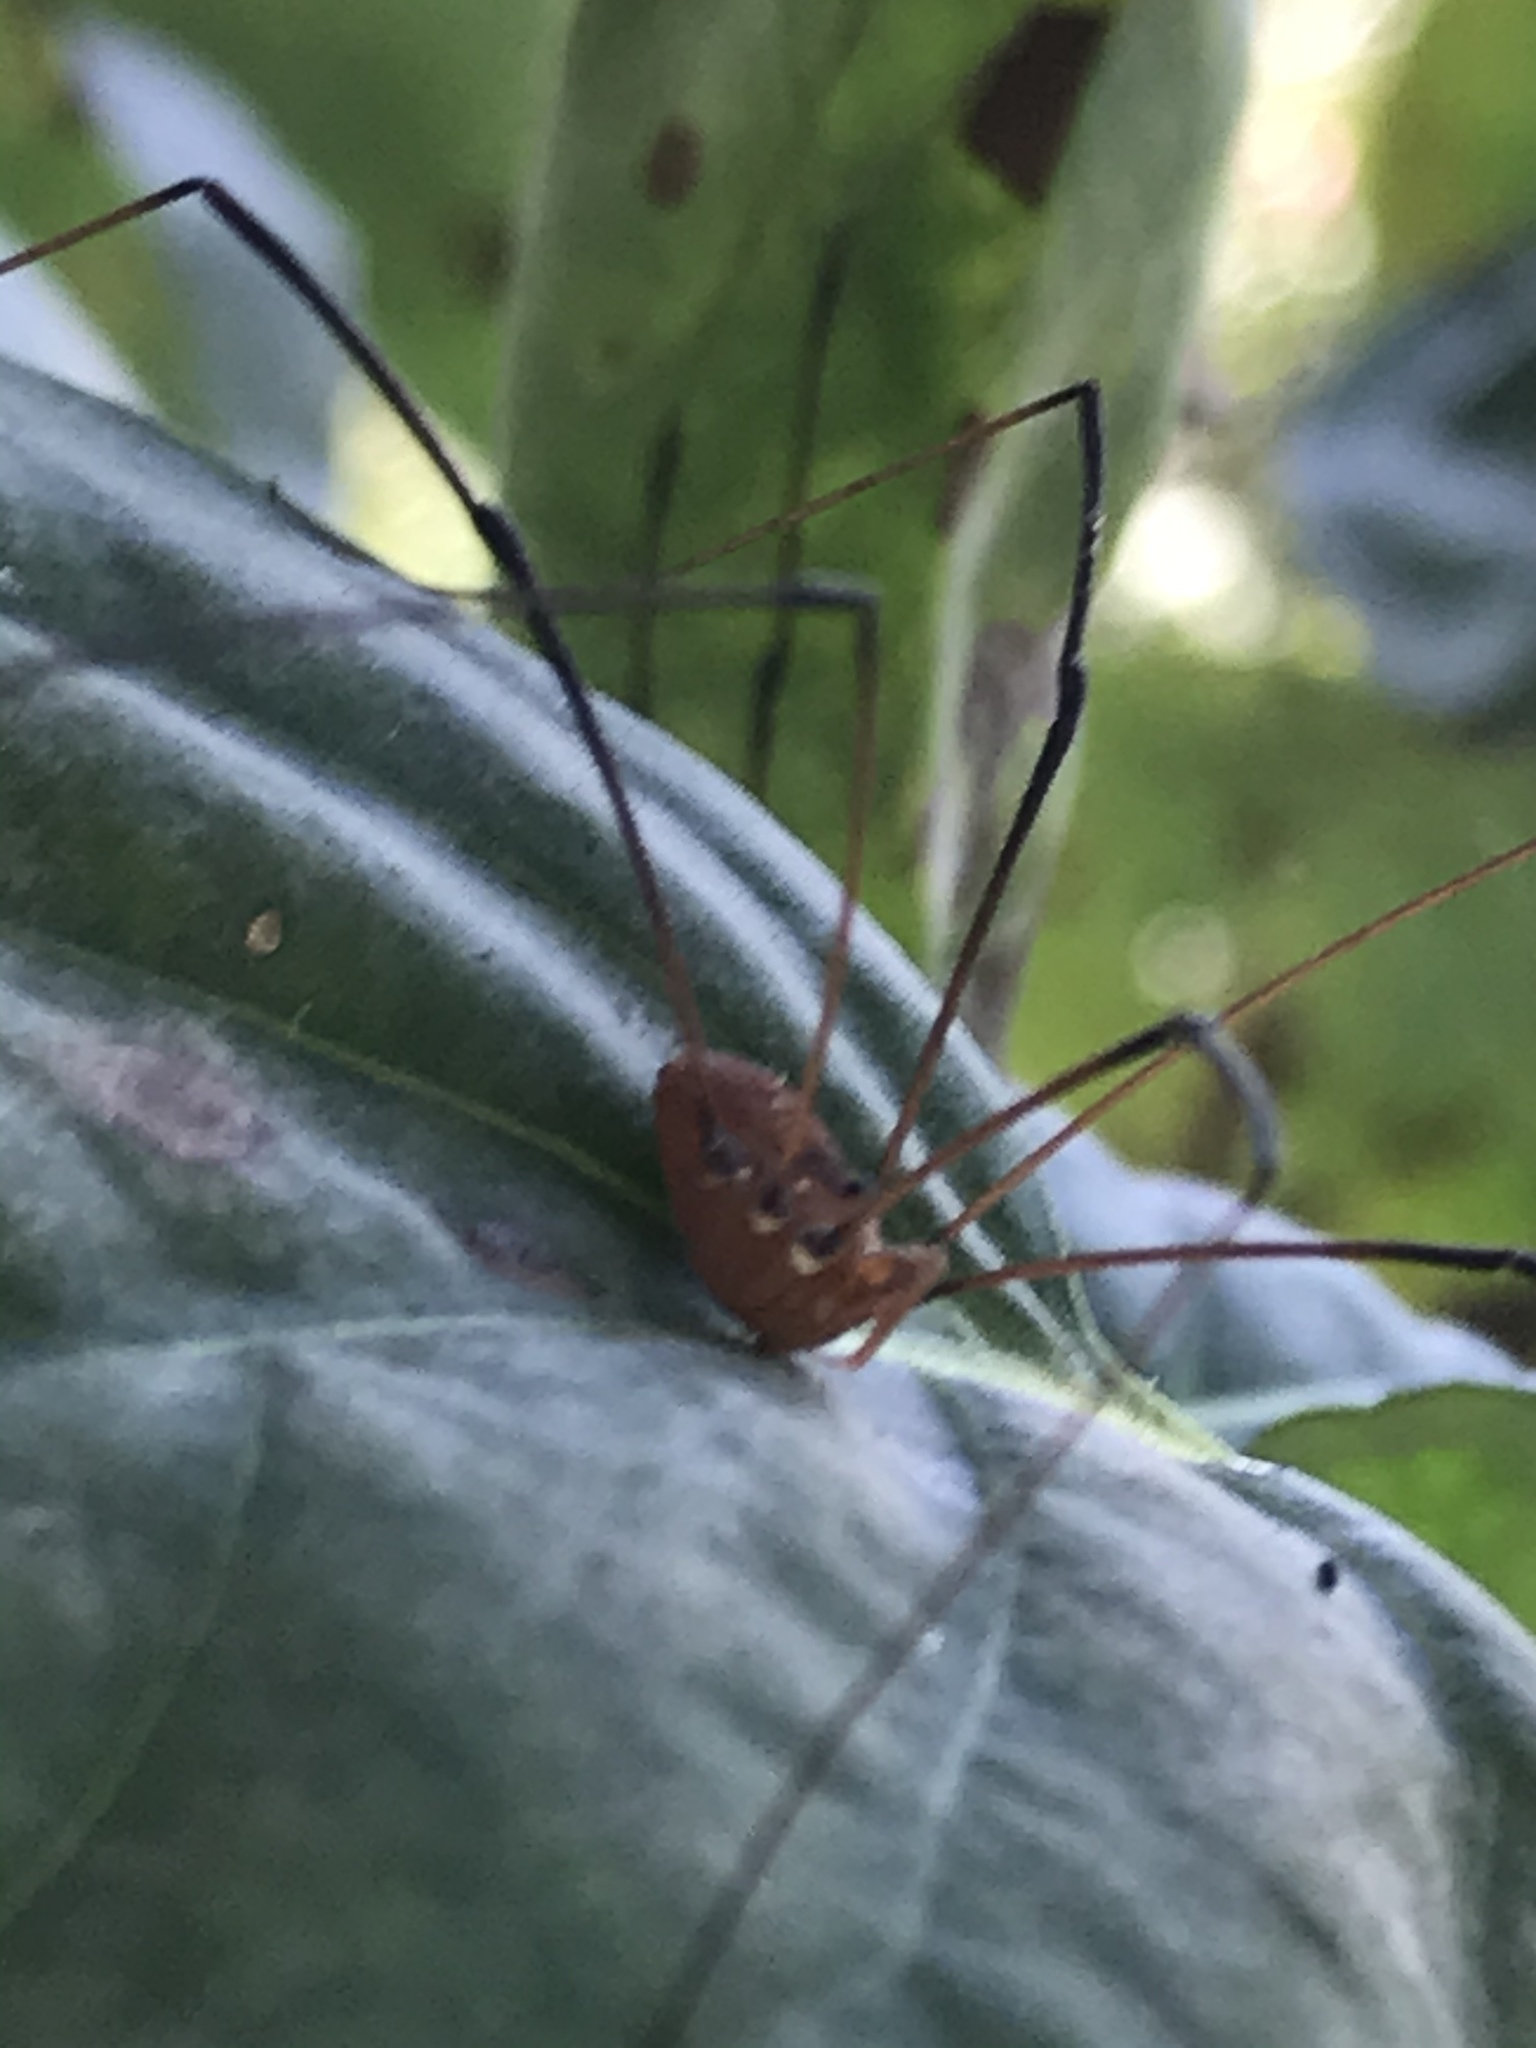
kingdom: Animalia
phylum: Arthropoda
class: Arachnida
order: Opiliones
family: Sclerosomatidae
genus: Leiobunum
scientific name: Leiobunum vittatum
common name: Eastern harvestman
